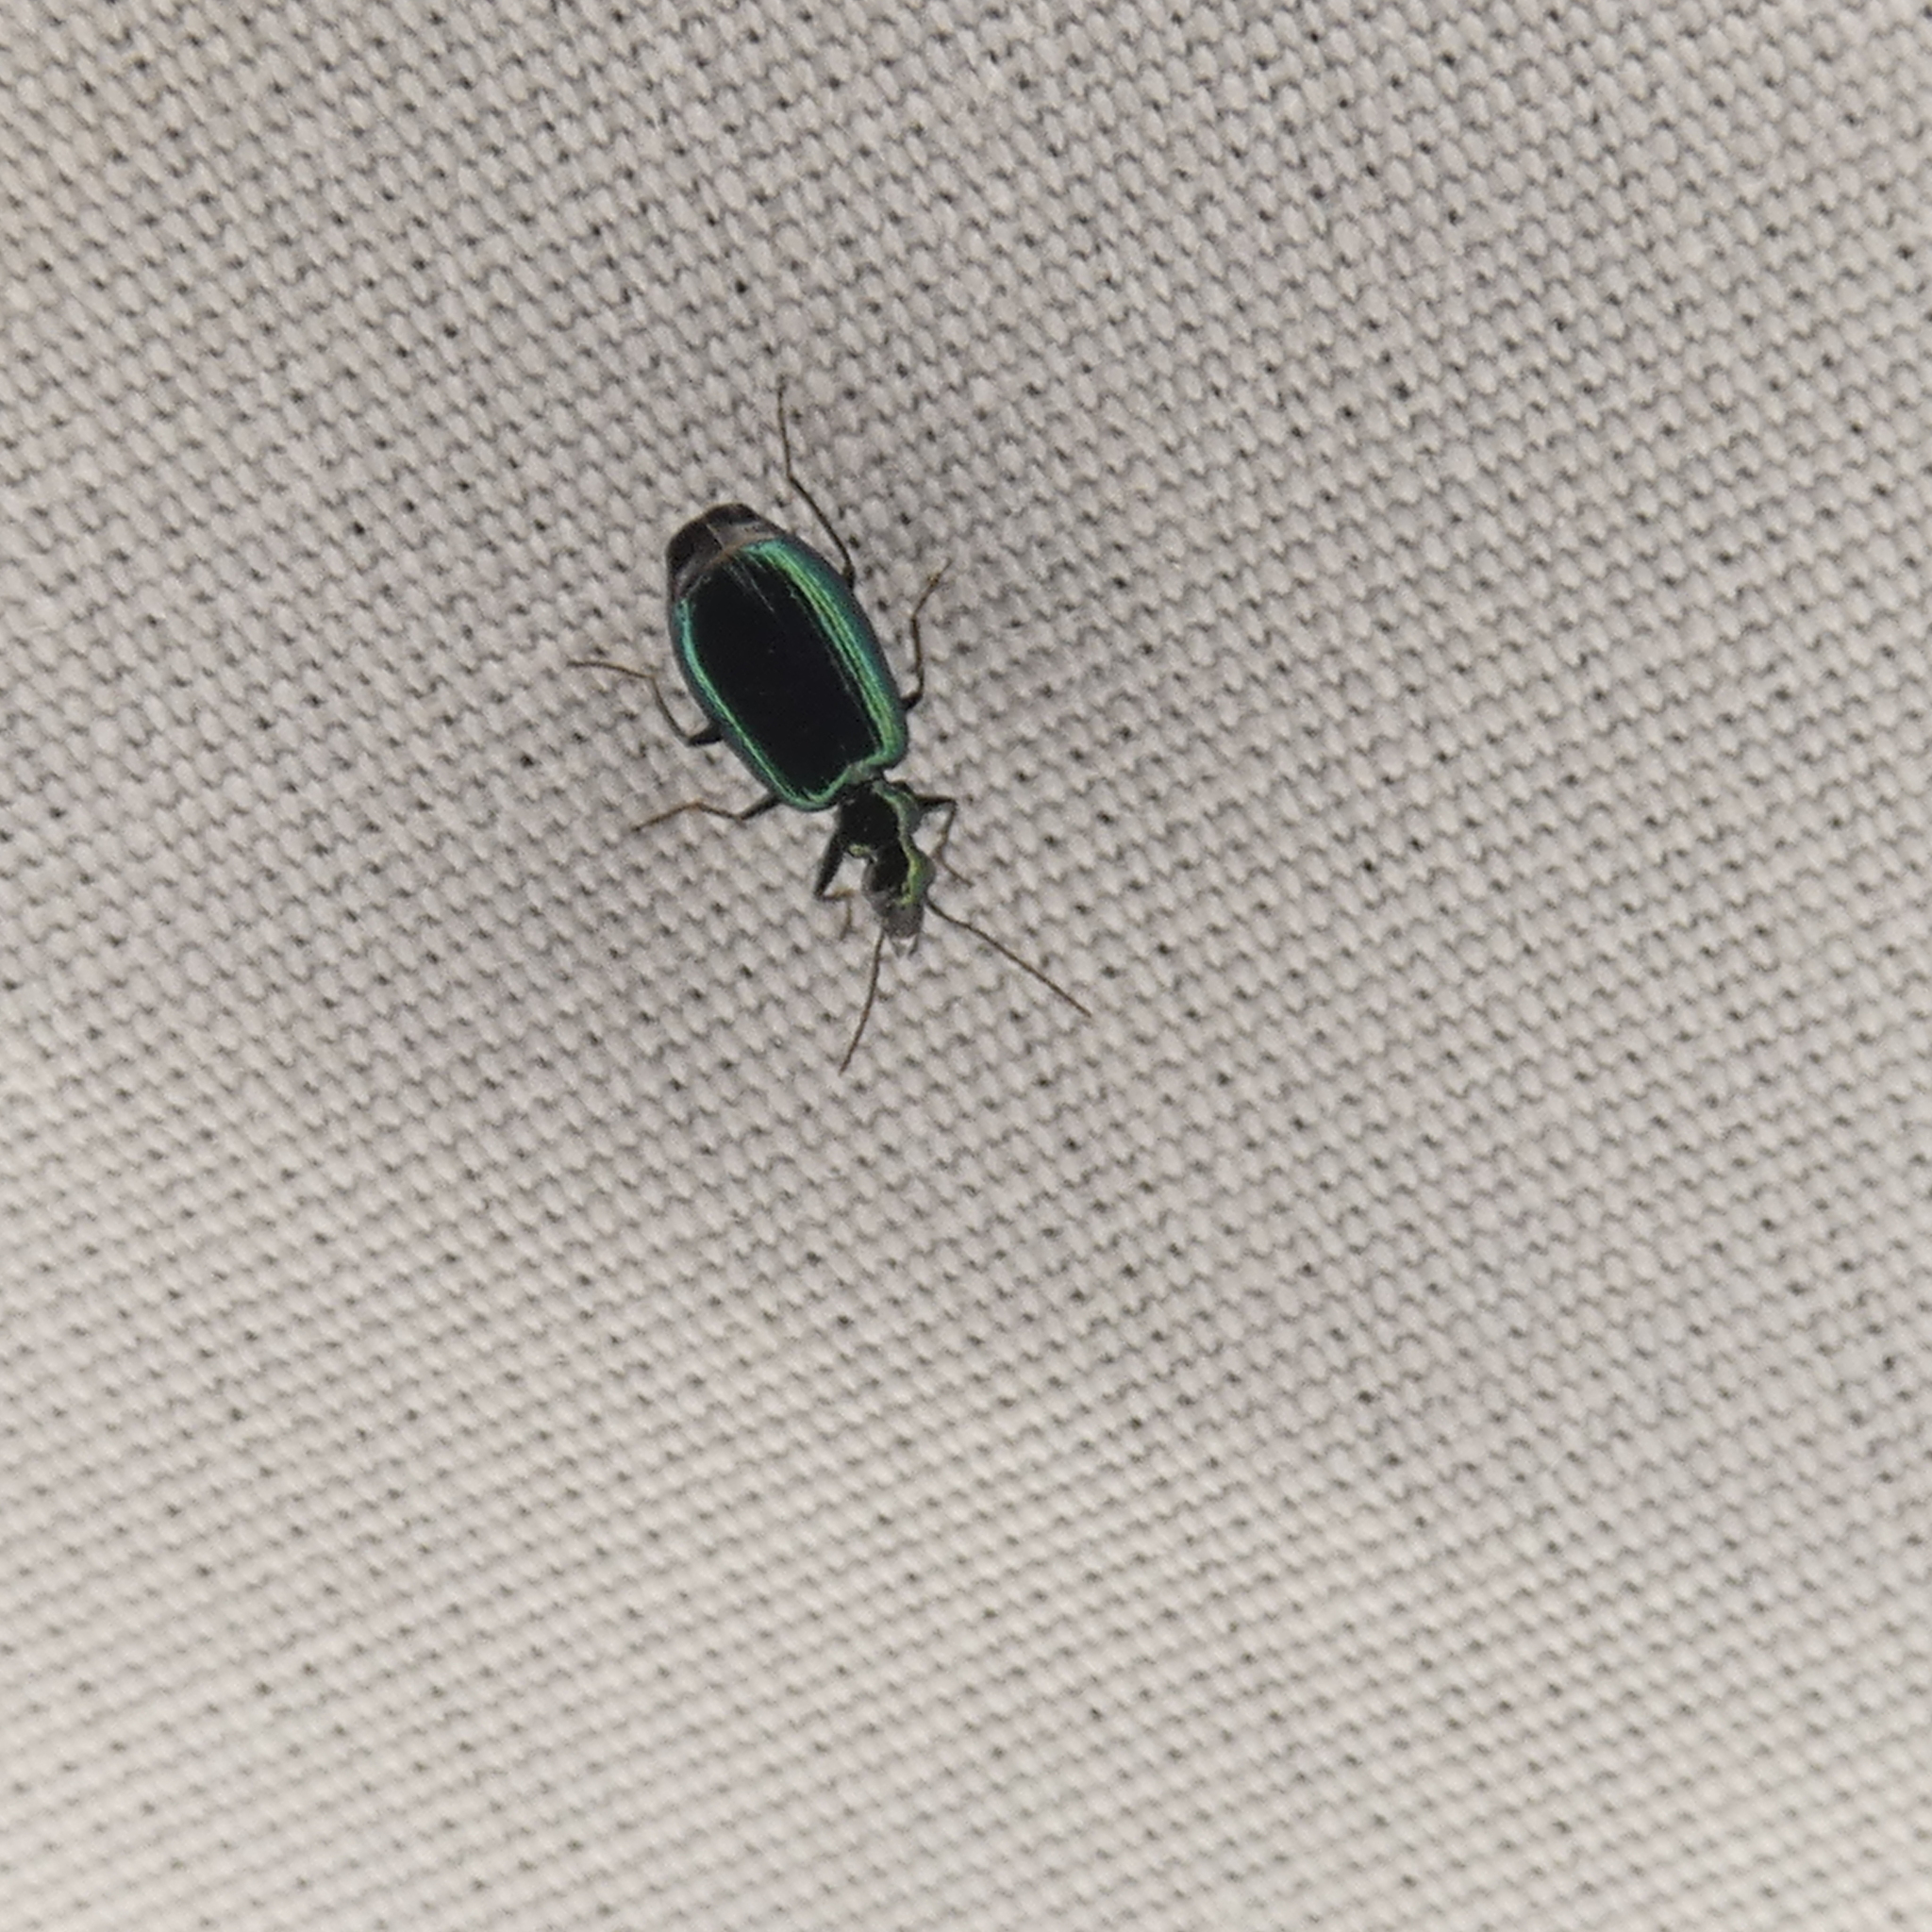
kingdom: Animalia
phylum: Arthropoda
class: Insecta
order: Coleoptera
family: Carabidae
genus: Lebia
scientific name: Lebia viridis
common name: Flower lebia beetle
